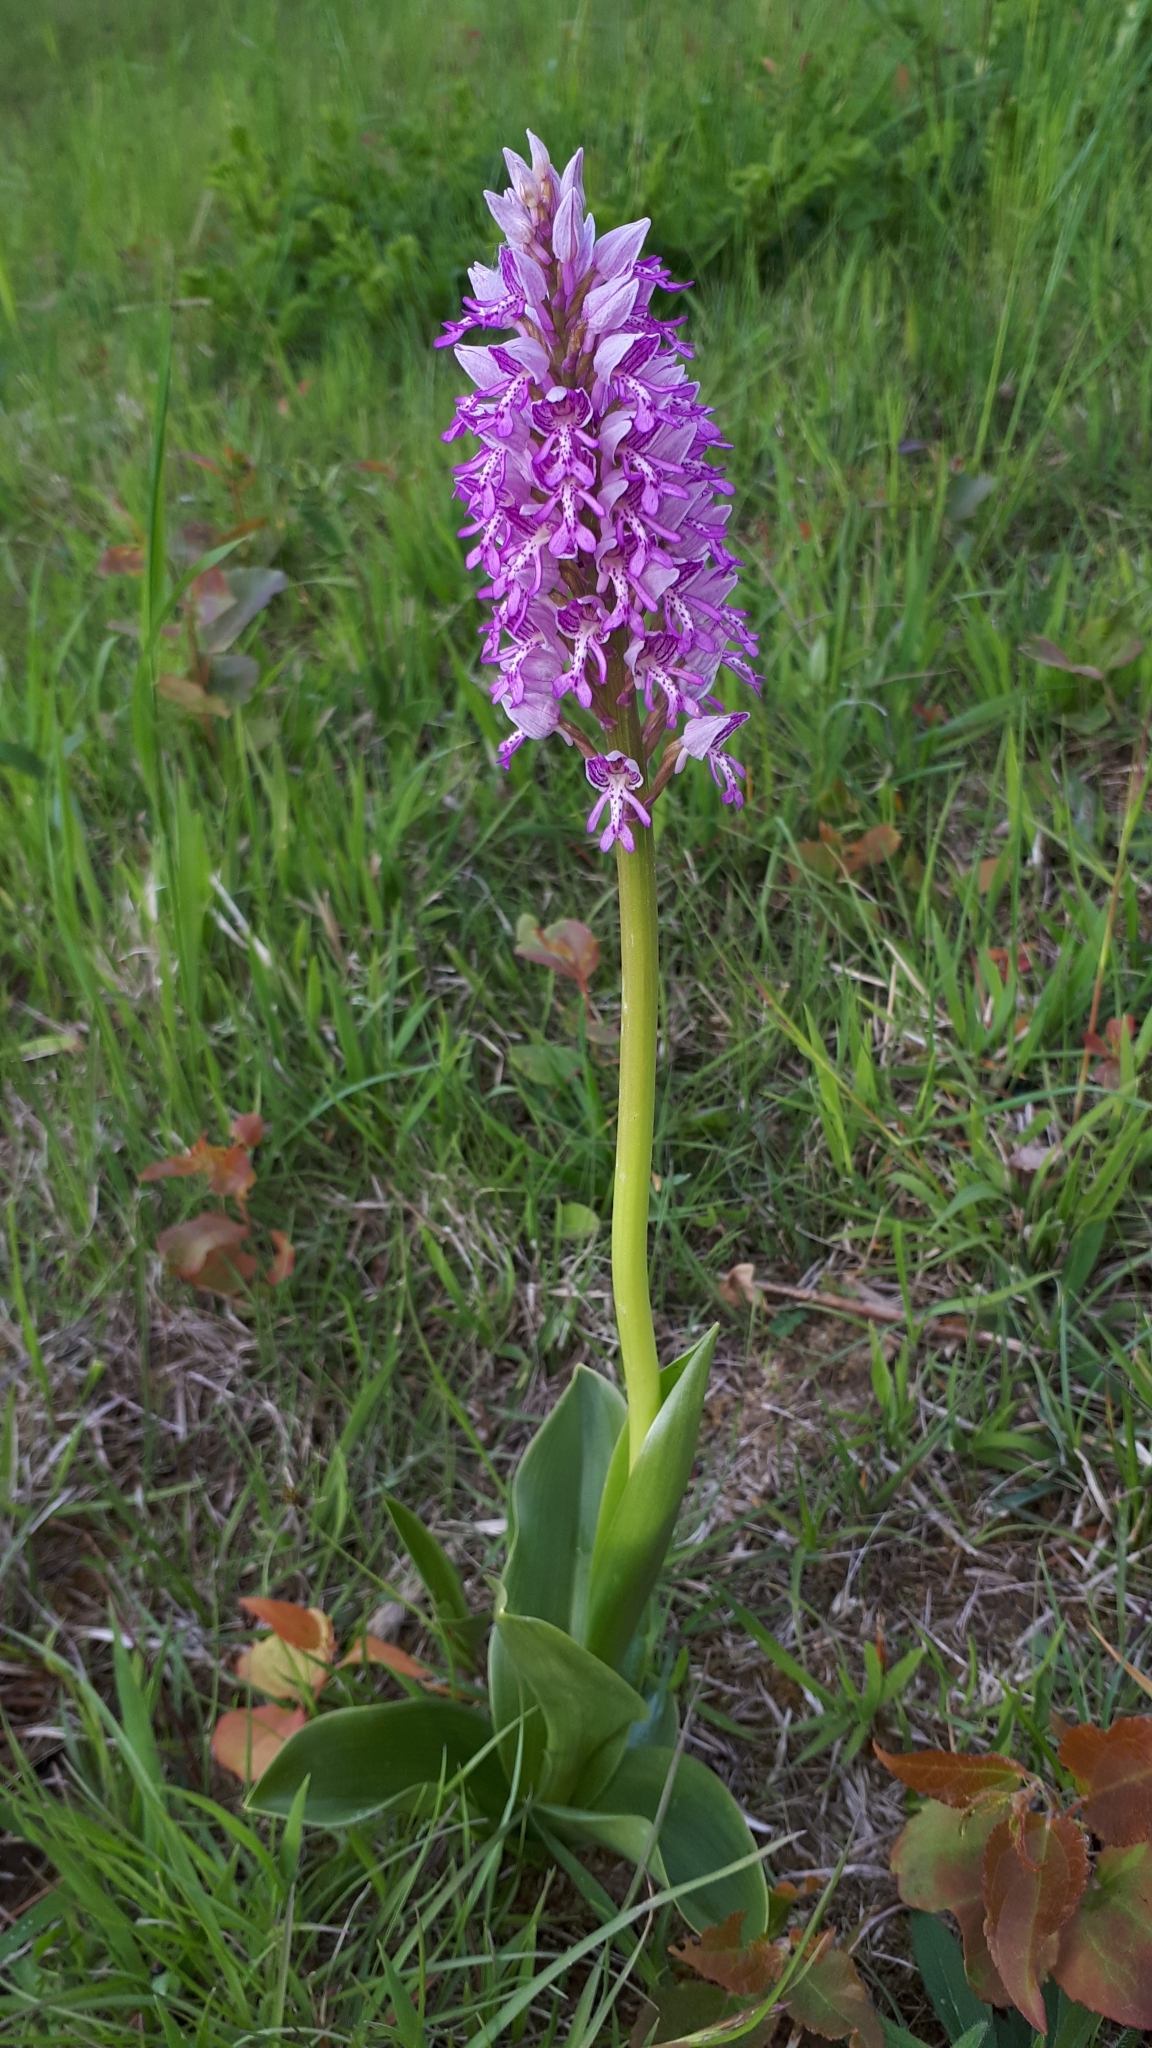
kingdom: Plantae
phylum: Tracheophyta
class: Liliopsida
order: Asparagales
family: Orchidaceae
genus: Orchis
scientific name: Orchis militaris
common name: Military orchid
